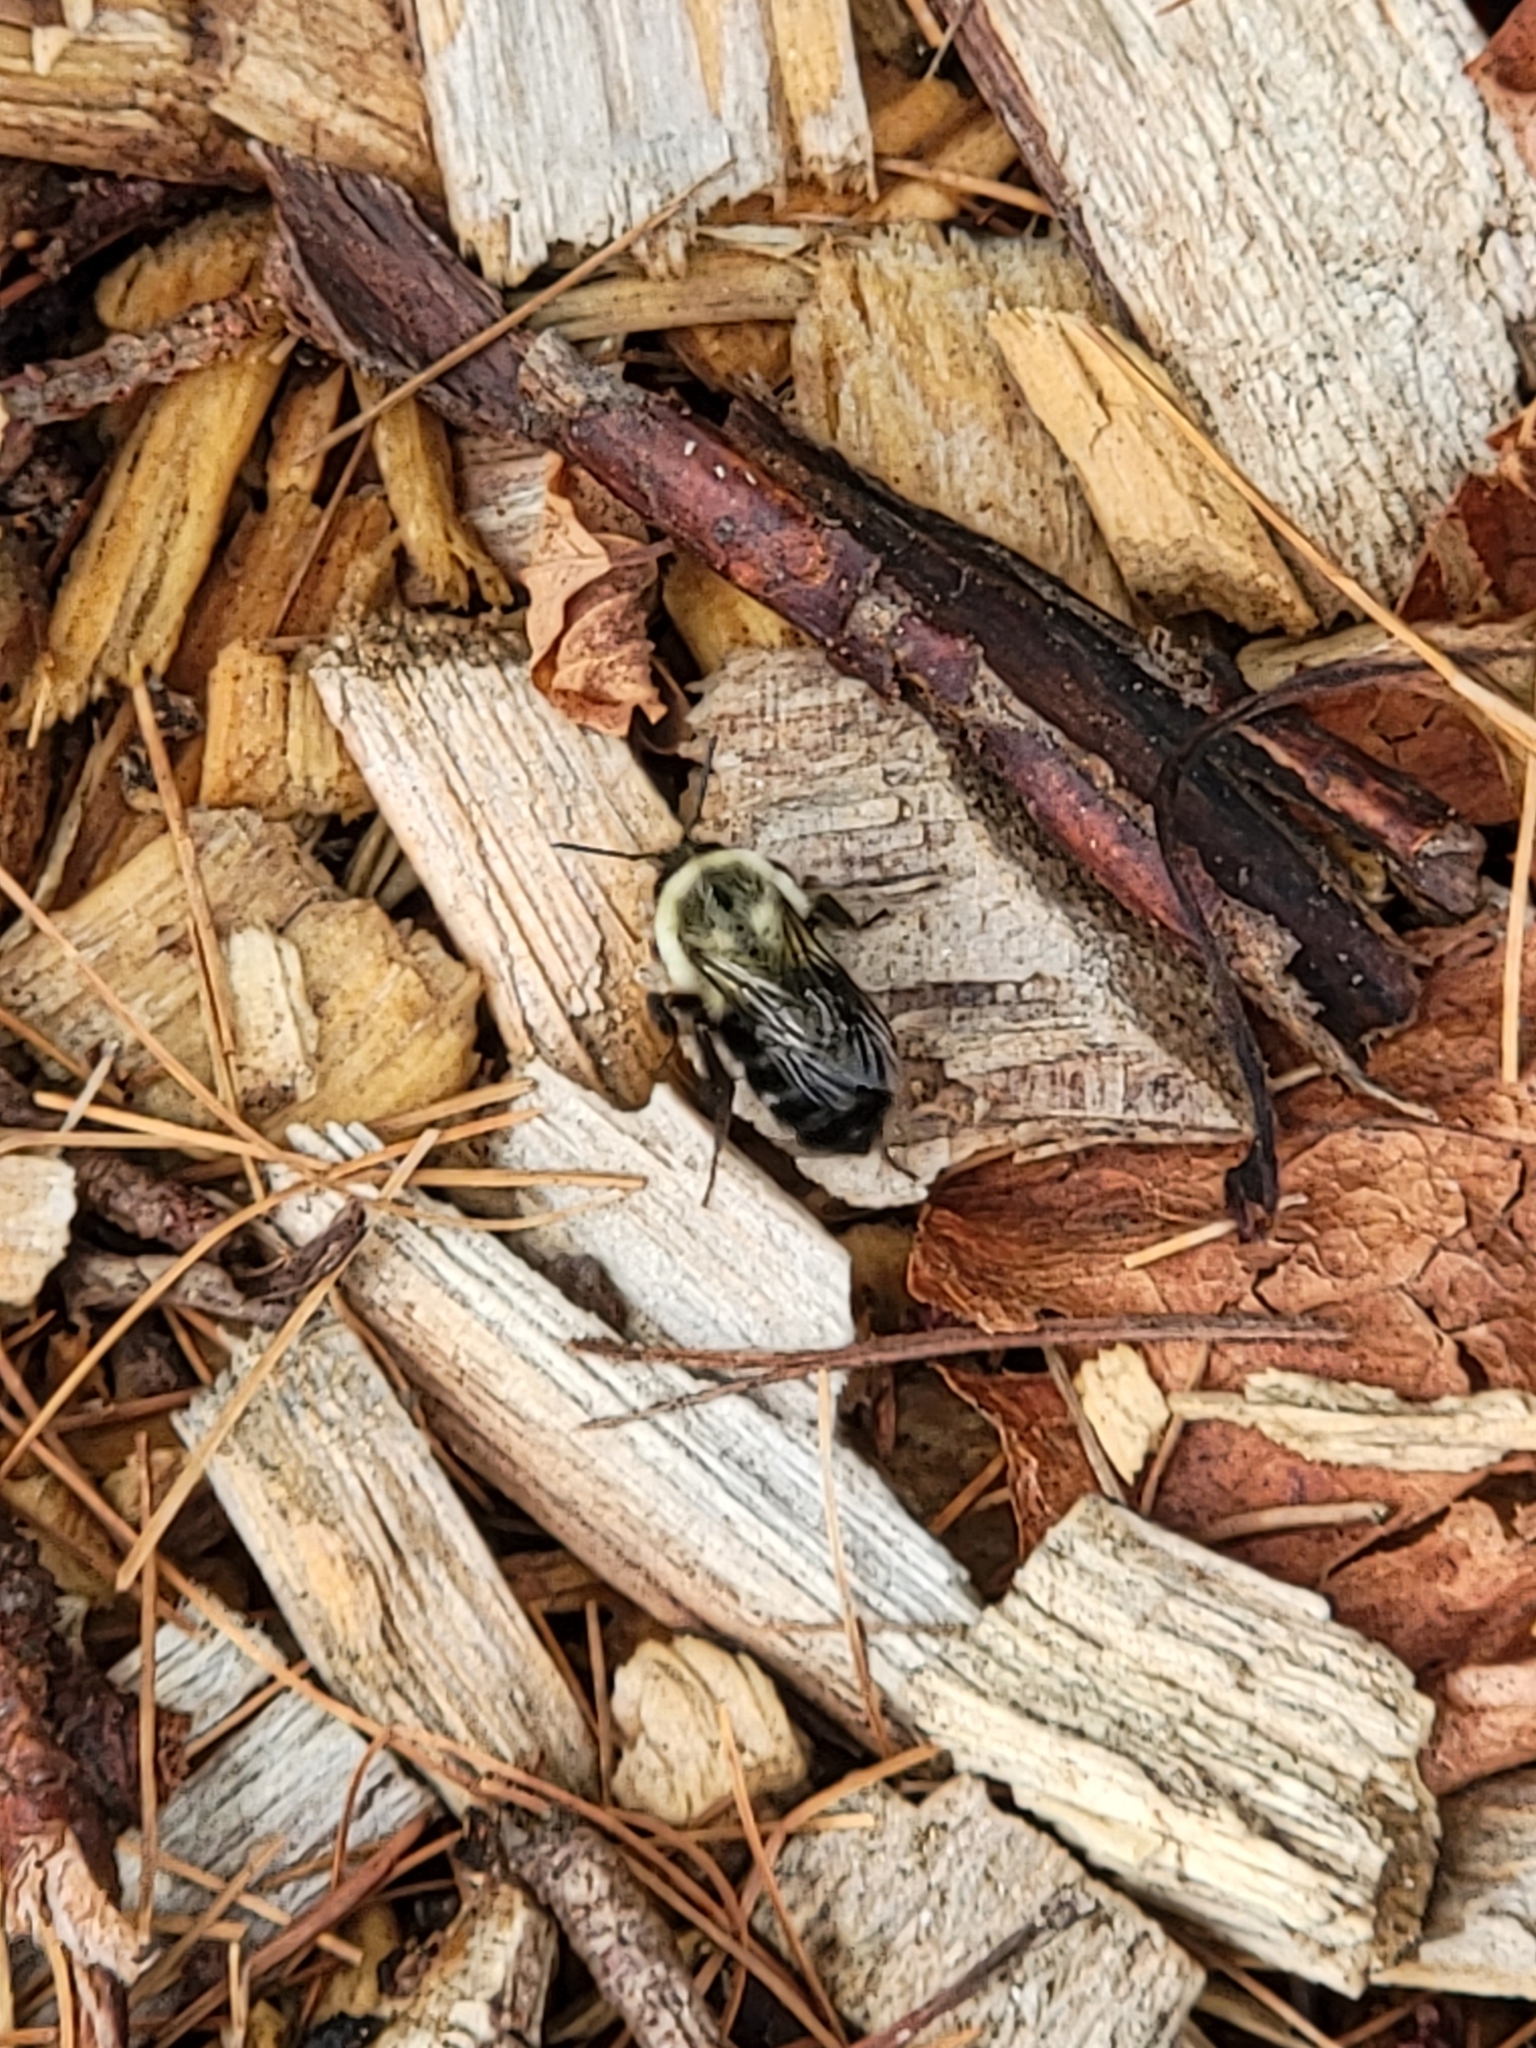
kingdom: Animalia
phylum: Arthropoda
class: Insecta
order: Hymenoptera
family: Apidae
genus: Bombus
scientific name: Bombus impatiens
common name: Common eastern bumble bee
